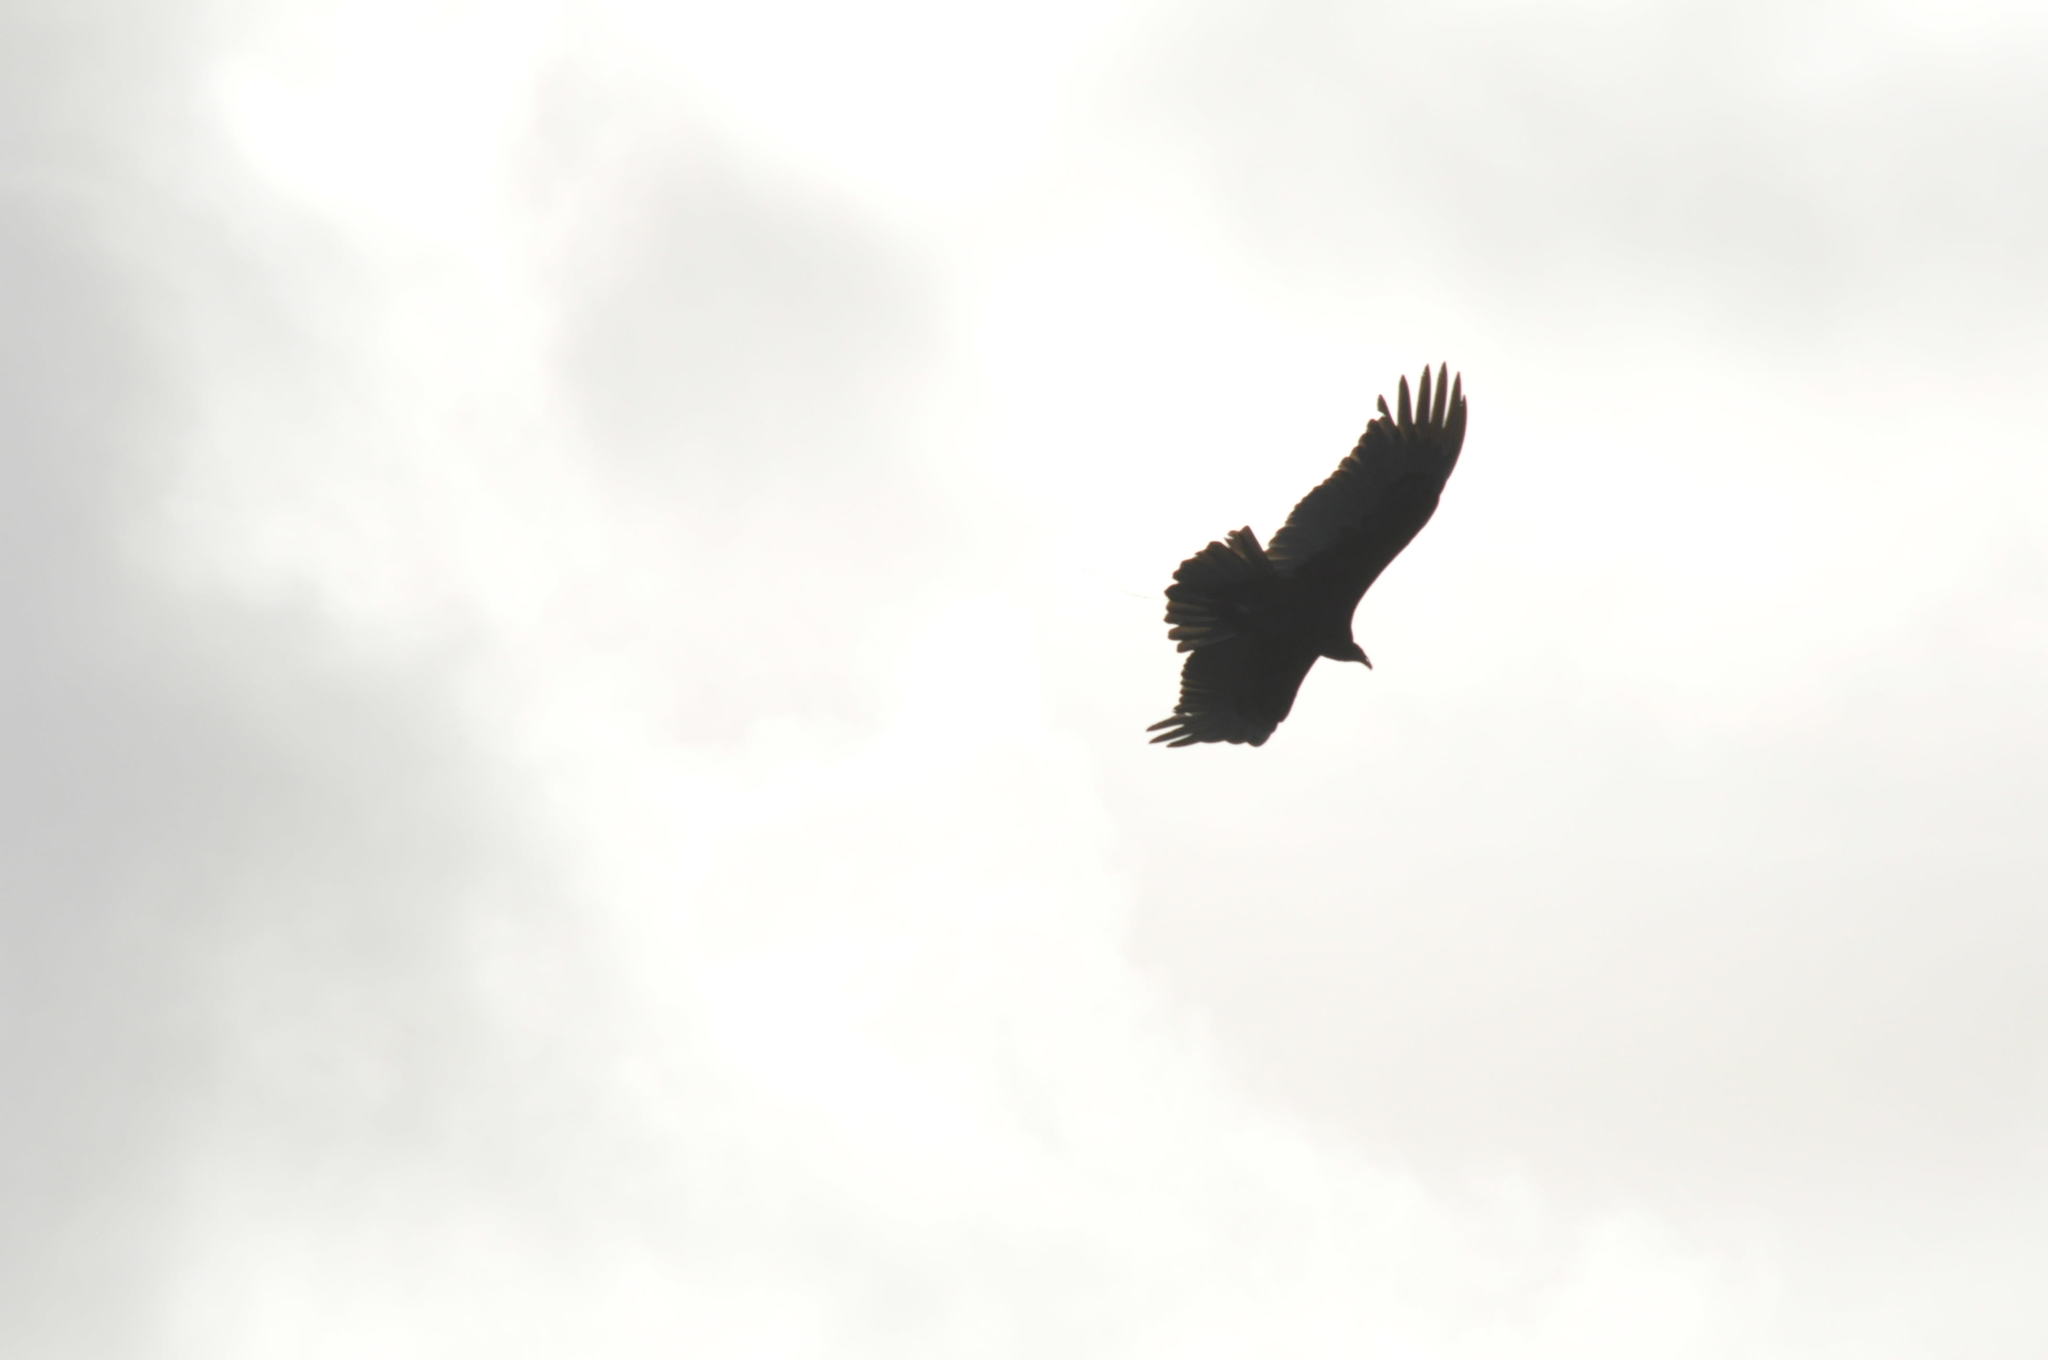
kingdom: Animalia
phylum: Chordata
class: Aves
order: Accipitriformes
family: Cathartidae
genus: Coragyps
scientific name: Coragyps atratus
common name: Black vulture
